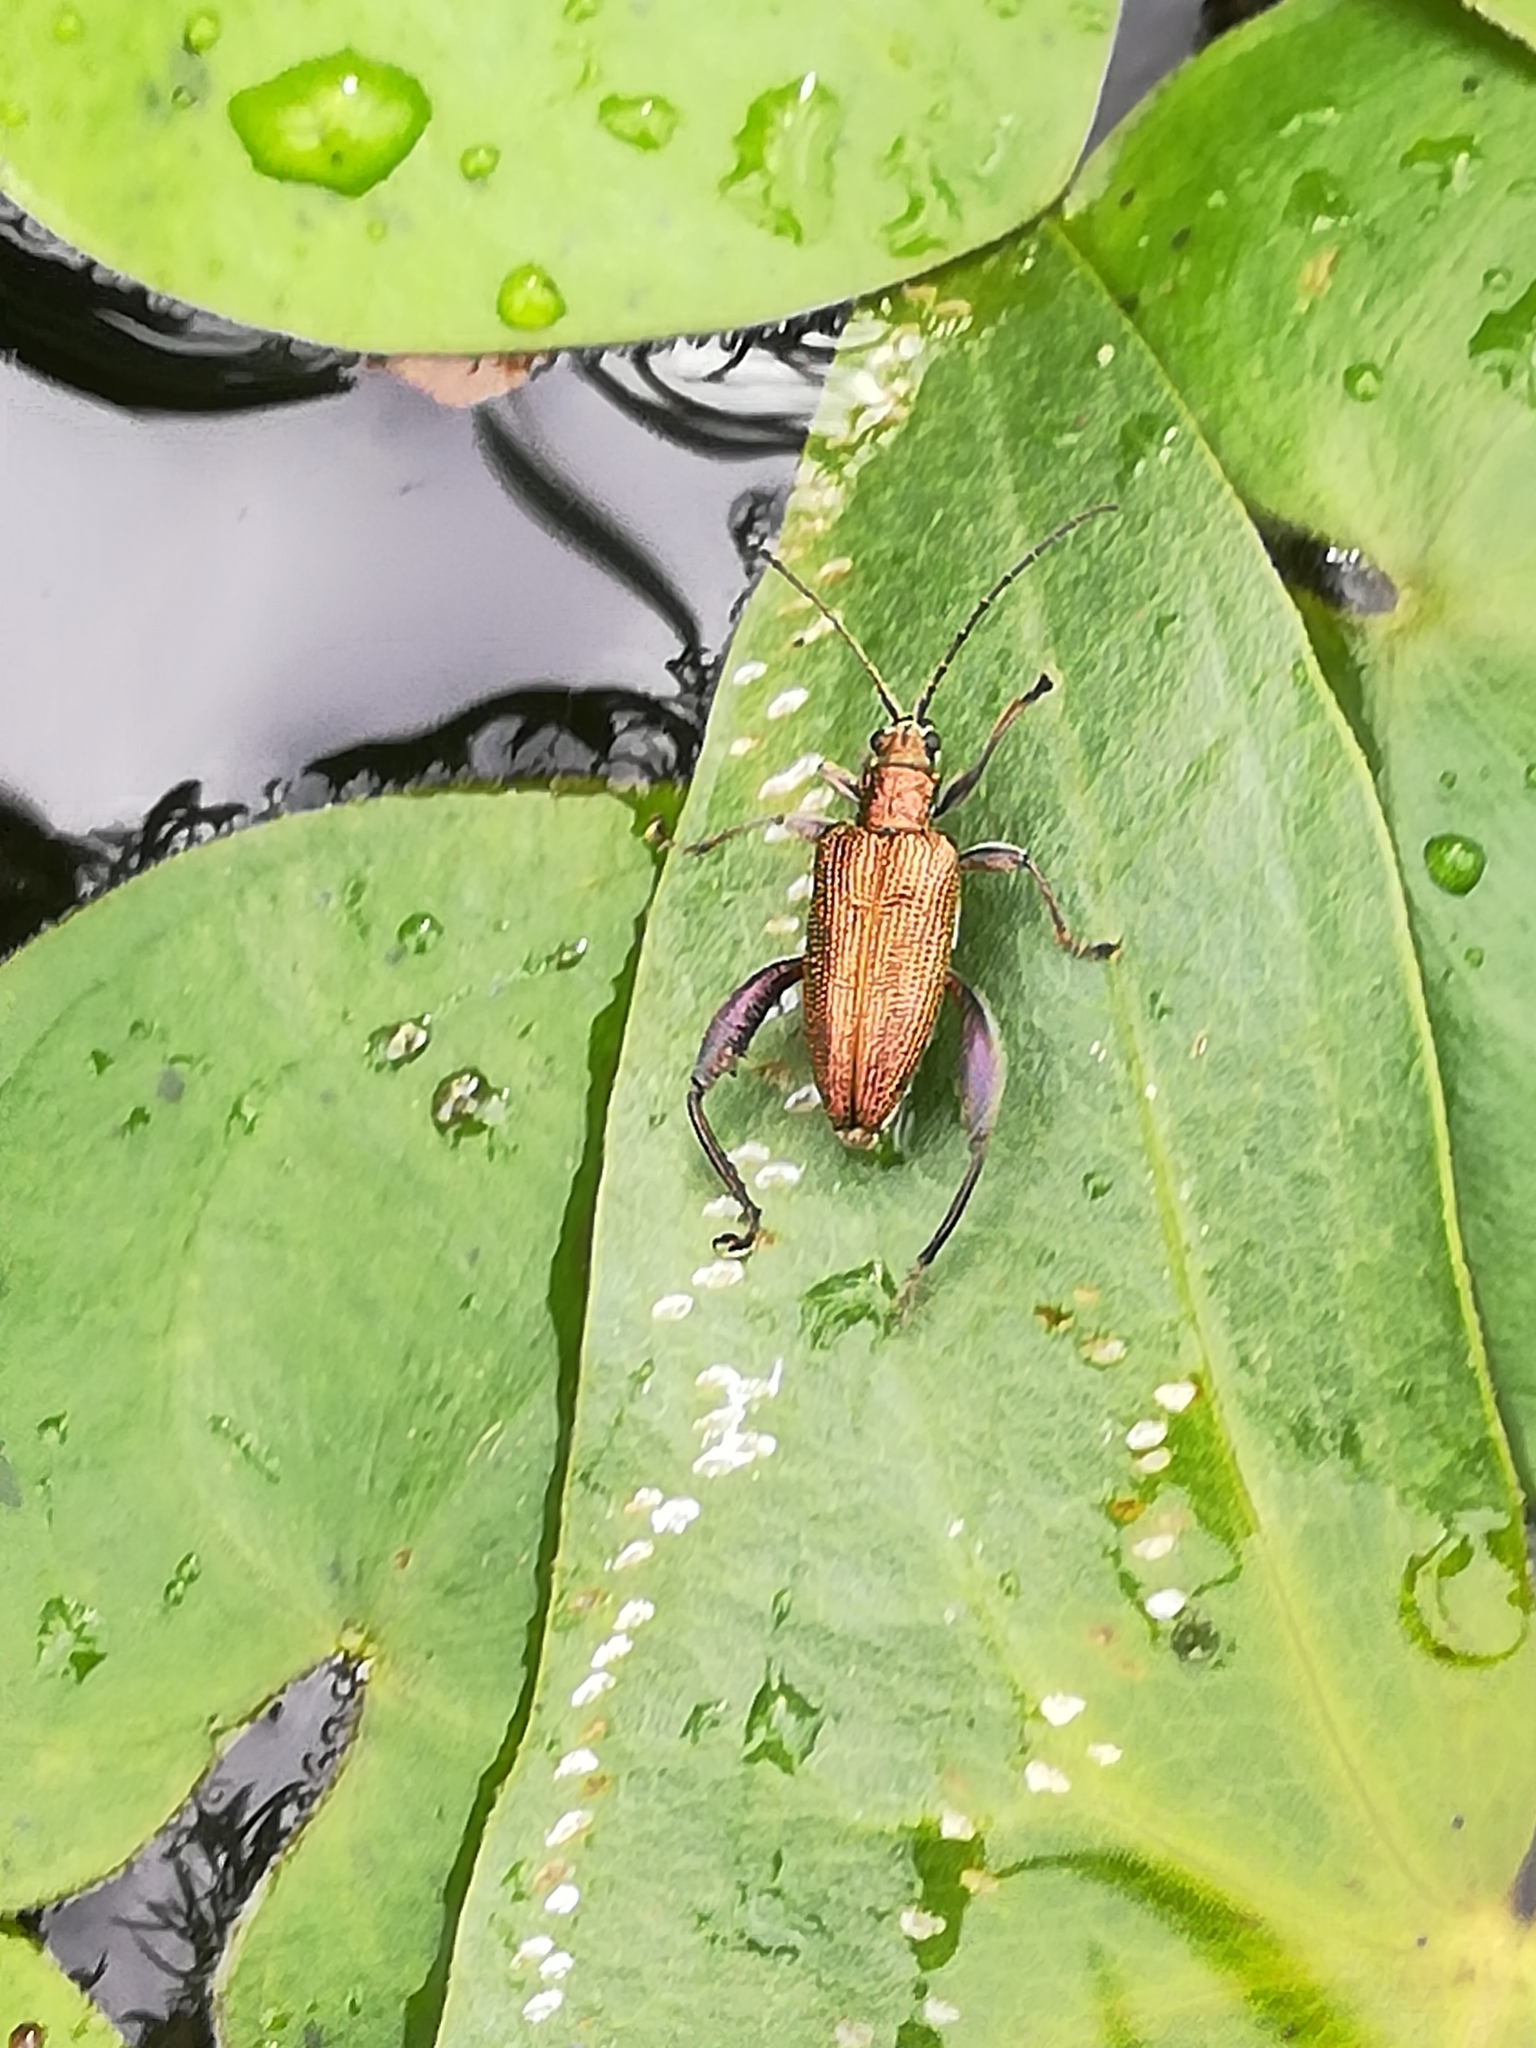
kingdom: Animalia
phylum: Arthropoda
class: Insecta
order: Coleoptera
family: Chrysomelidae
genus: Donacia
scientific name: Donacia crassipes
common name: Water-lily reed beetle
